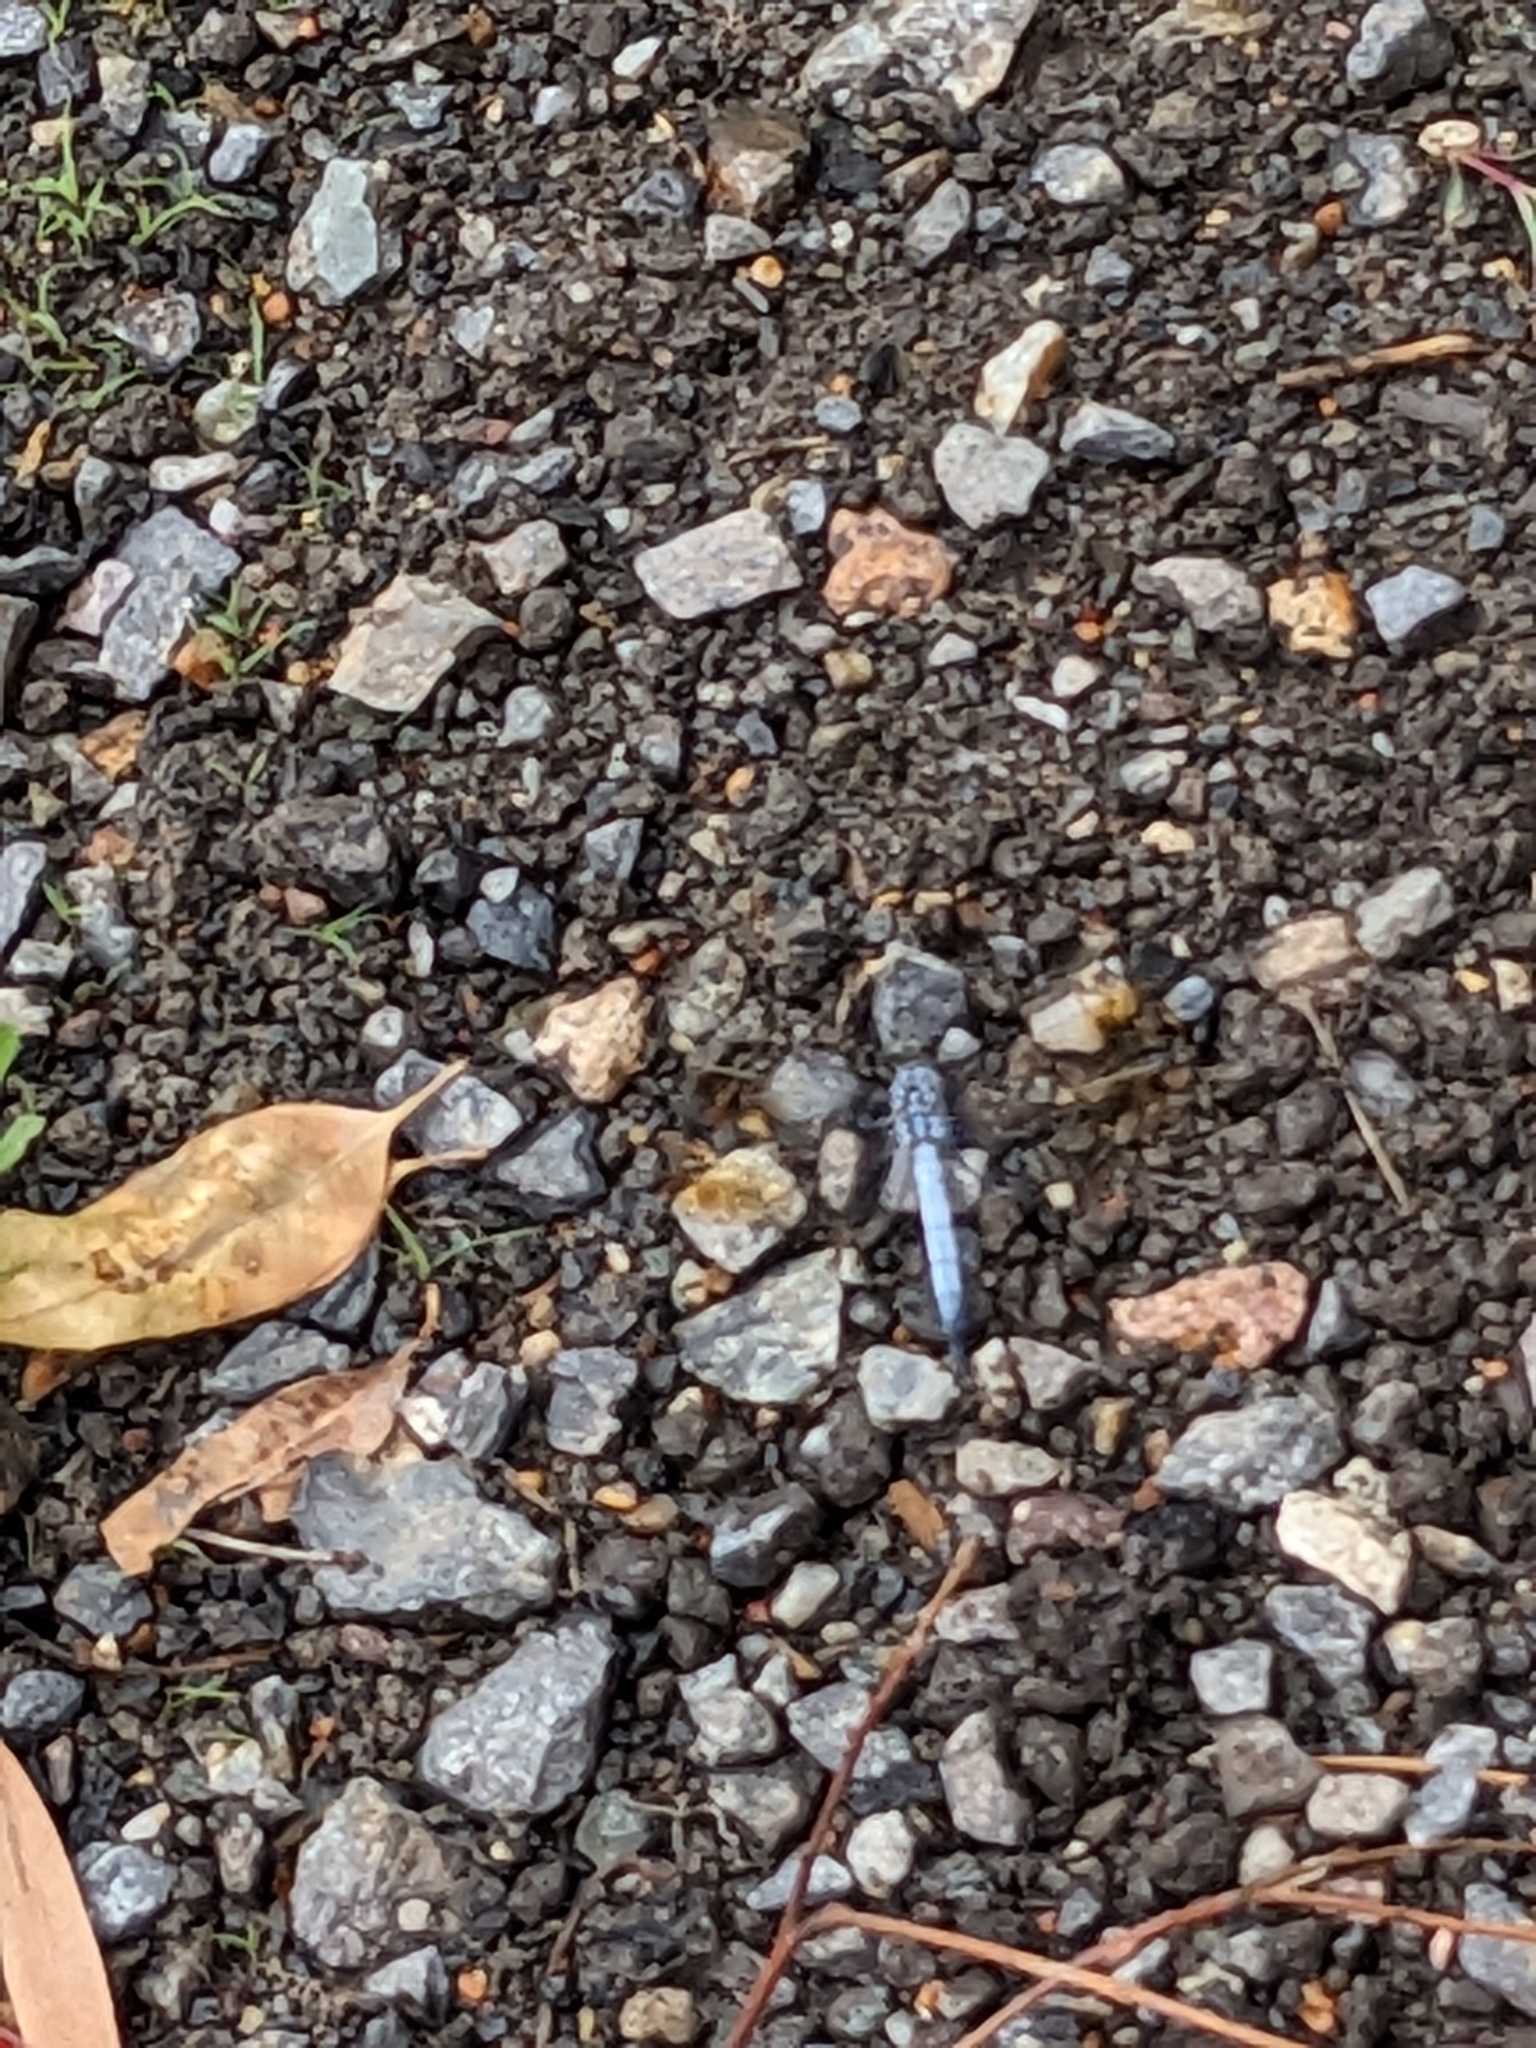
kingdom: Animalia
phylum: Arthropoda
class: Insecta
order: Odonata
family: Libellulidae
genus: Orthetrum
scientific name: Orthetrum caledonicum
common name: Blue skimmer
